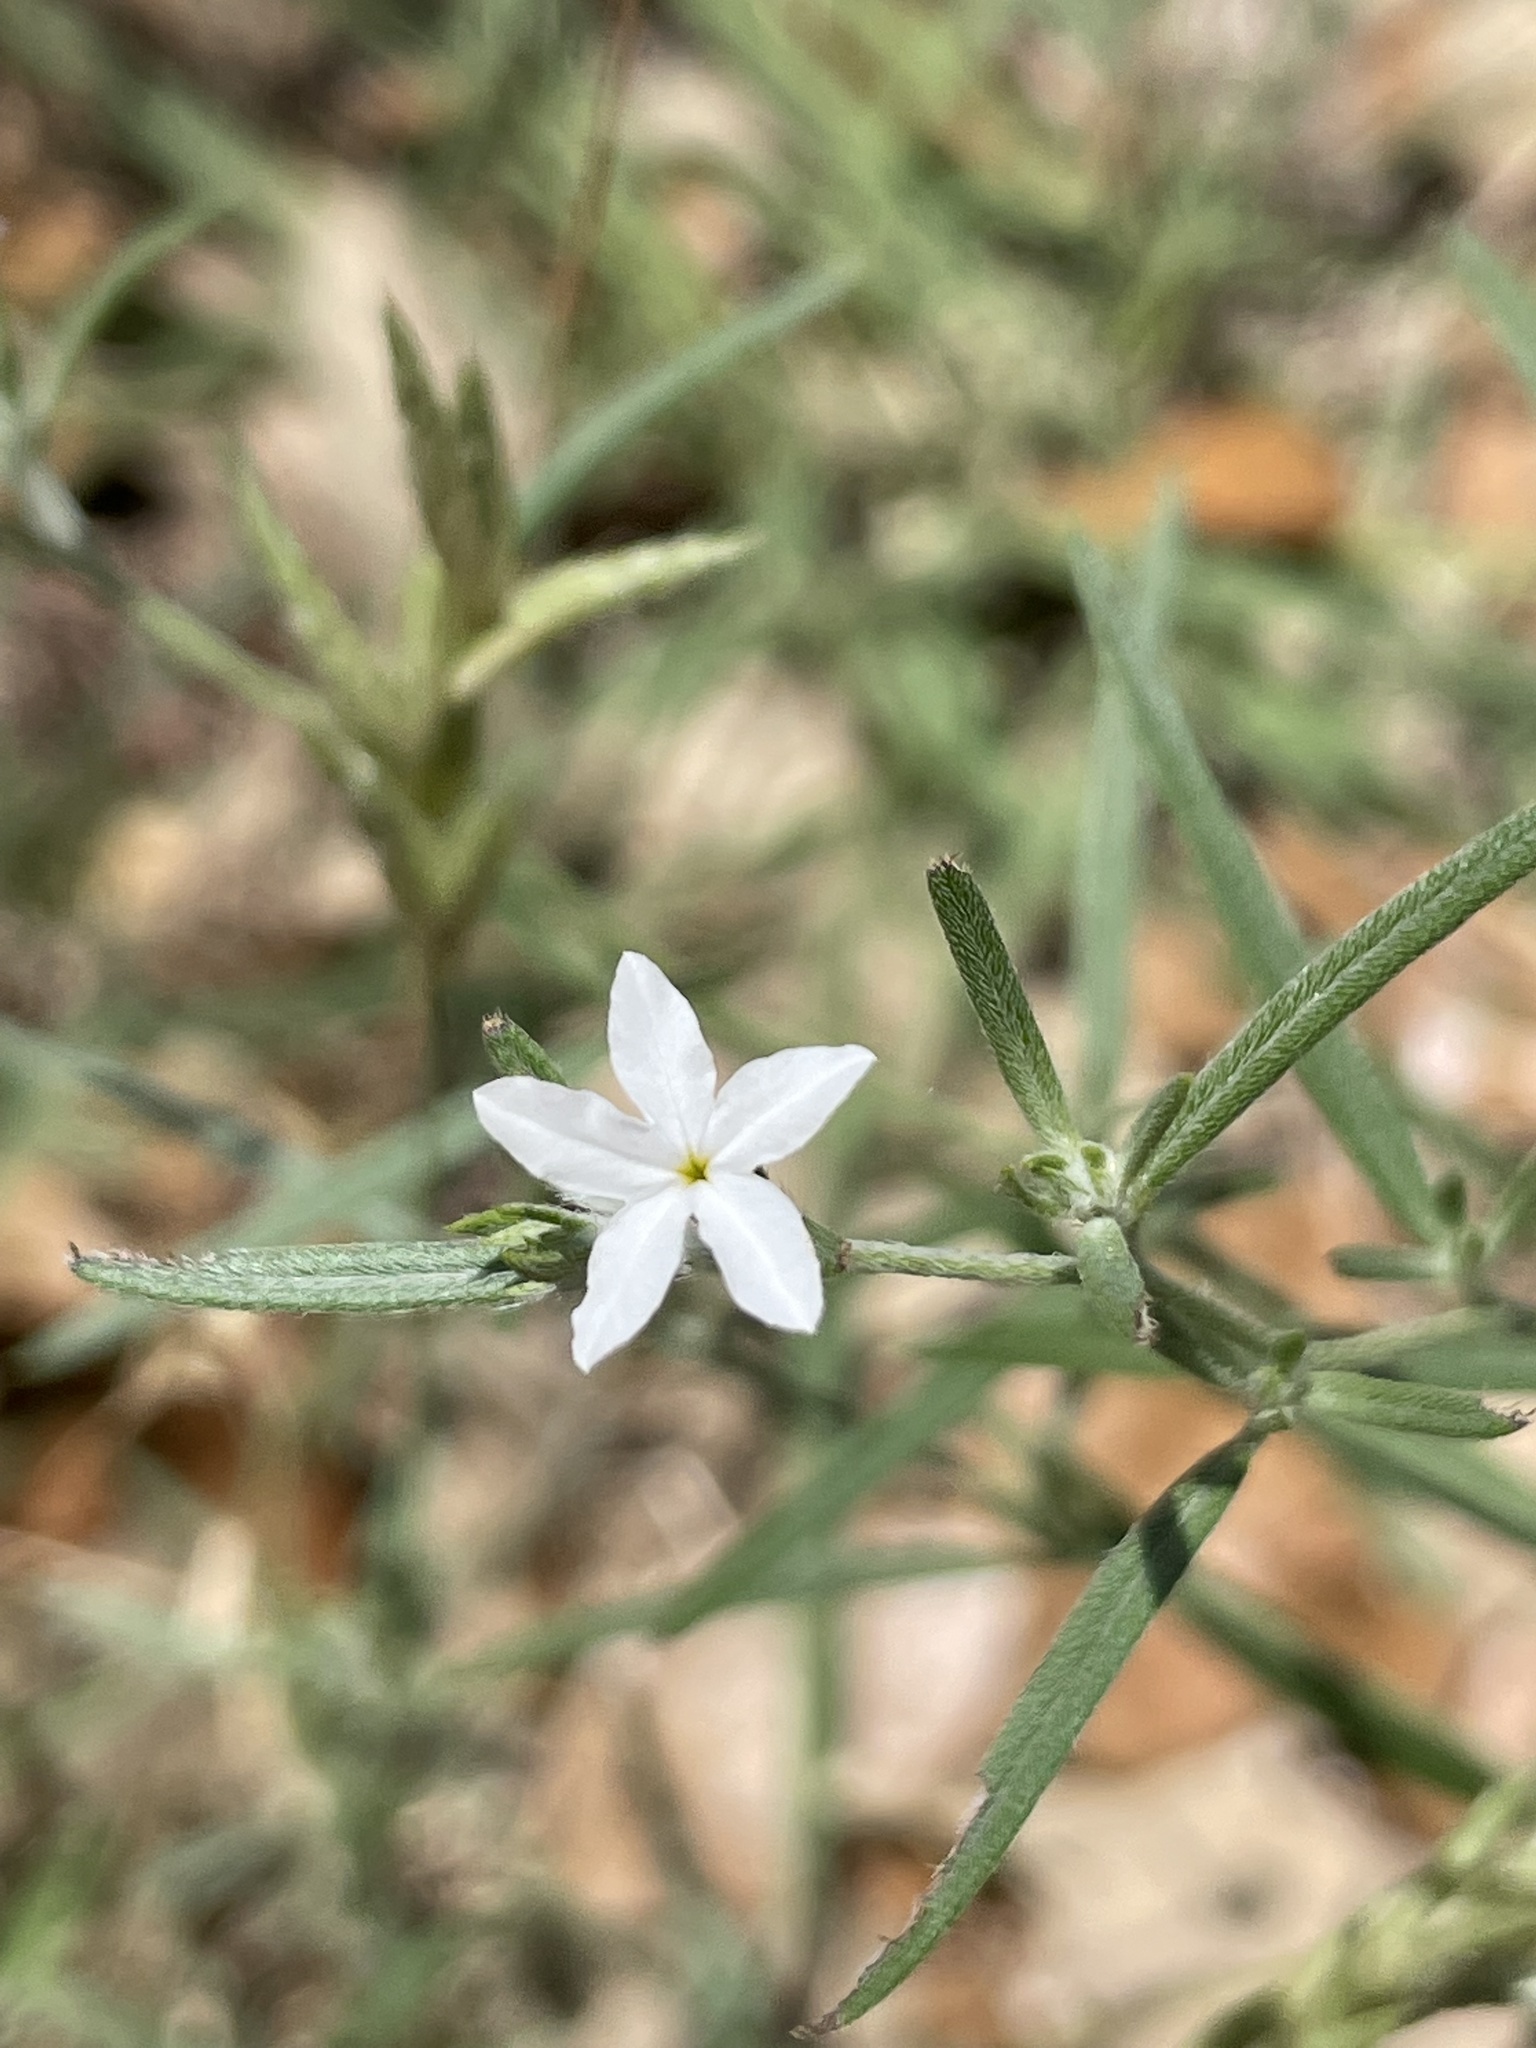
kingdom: Plantae
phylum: Tracheophyta
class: Magnoliopsida
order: Boraginales
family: Heliotropiaceae
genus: Euploca
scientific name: Euploca tenella
